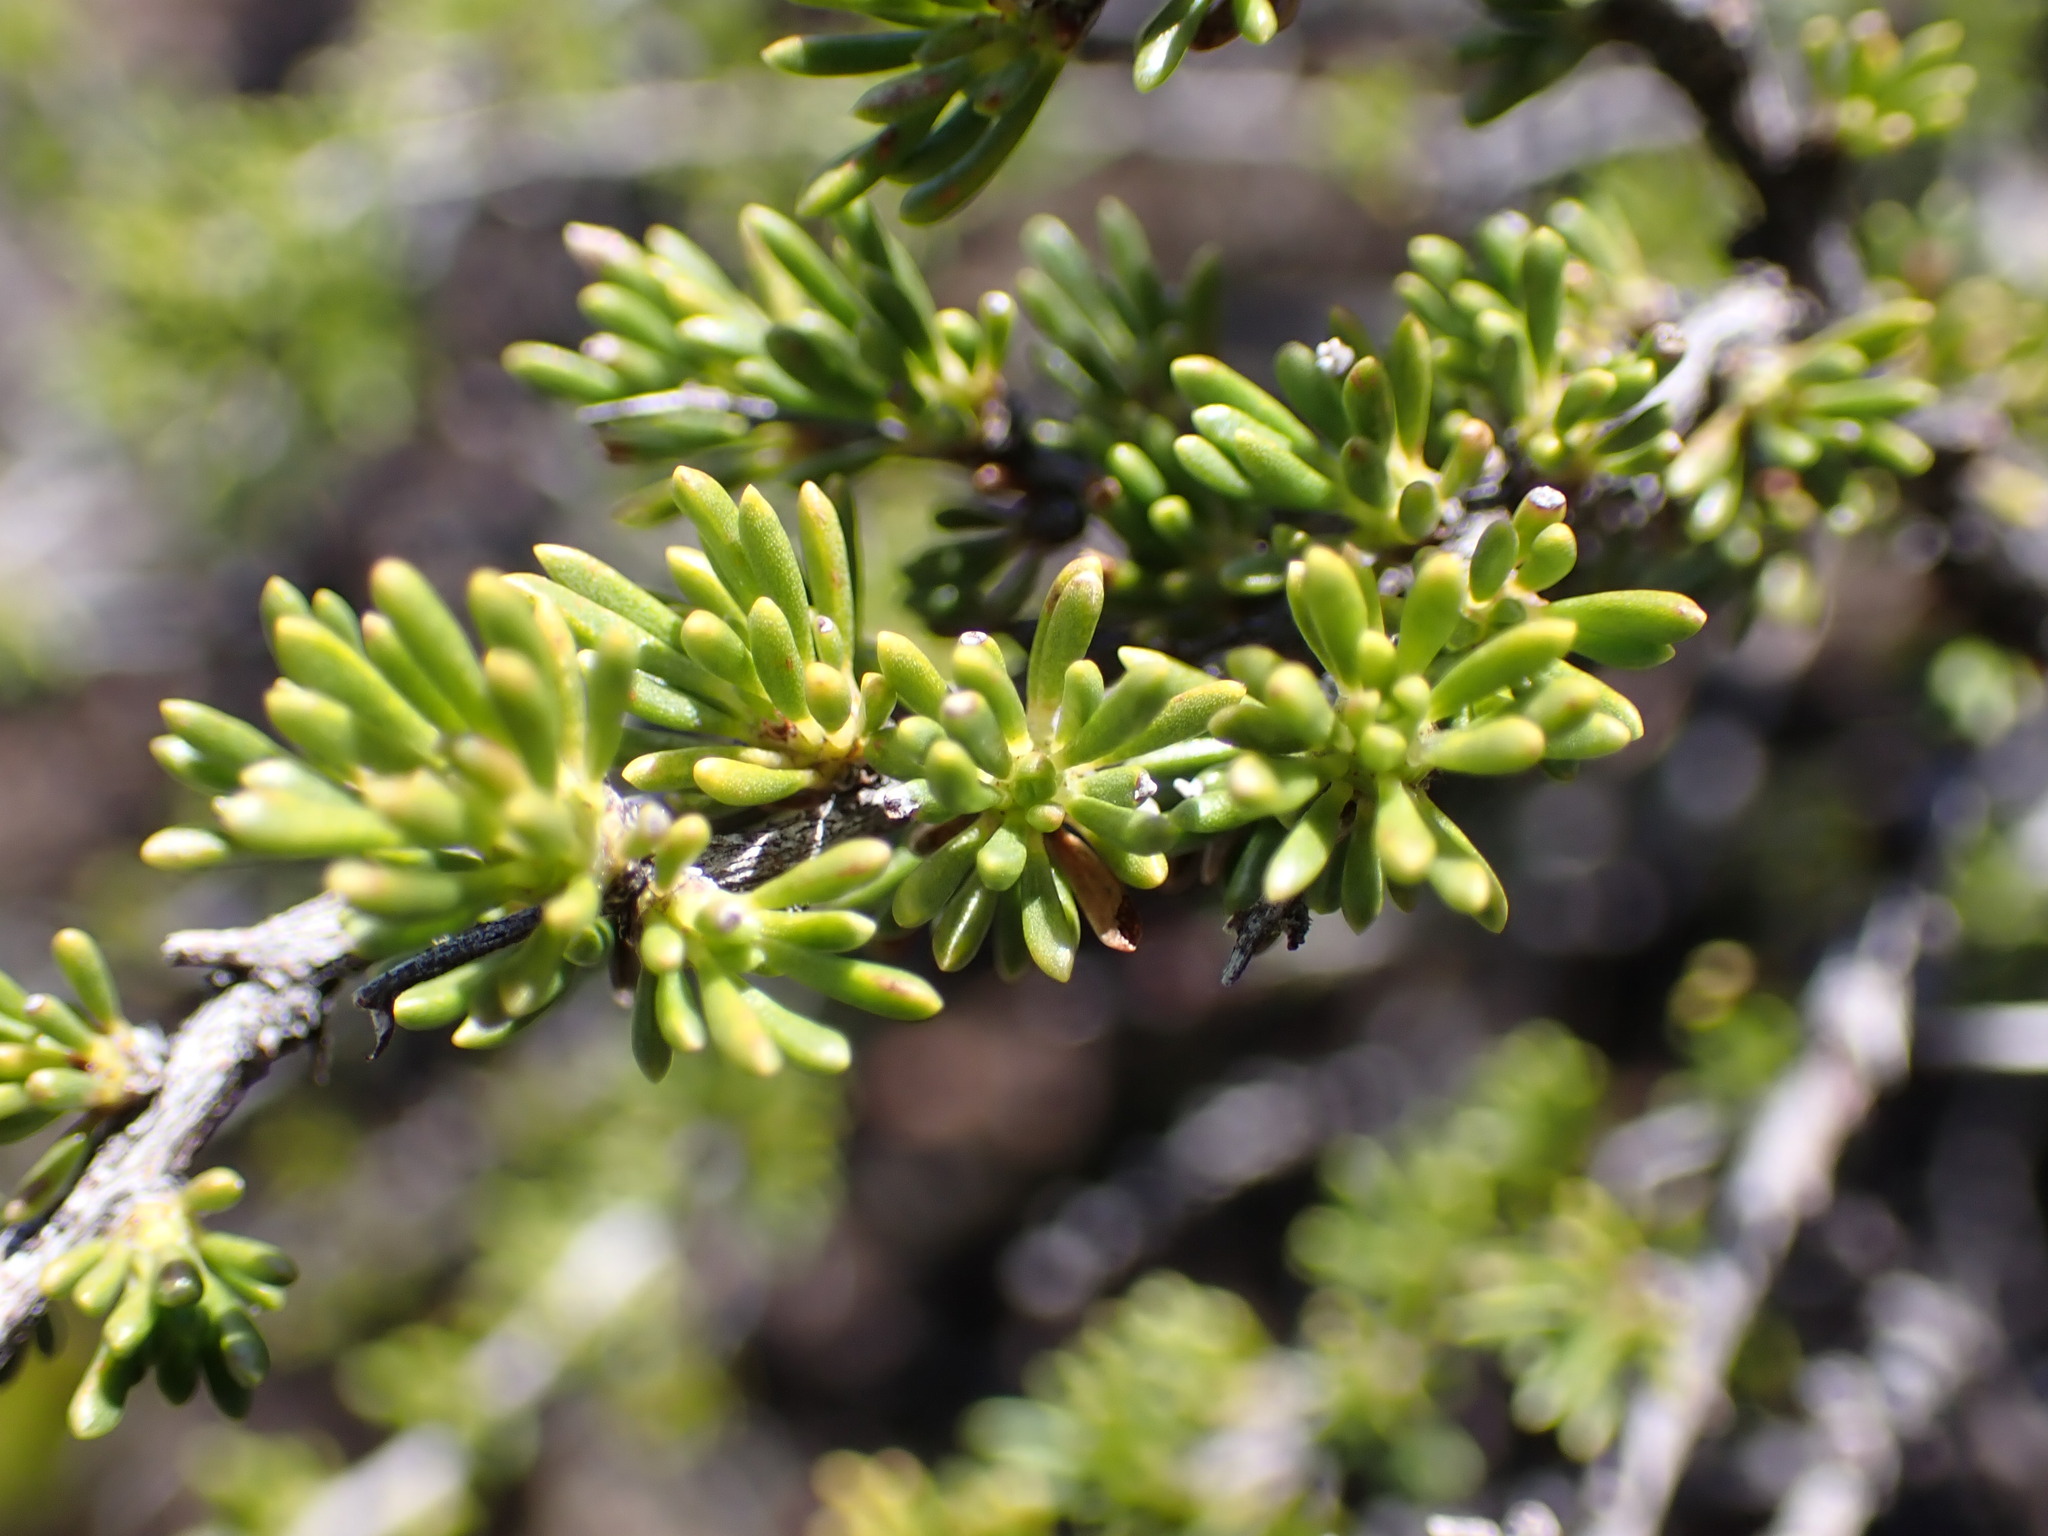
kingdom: Plantae
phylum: Tracheophyta
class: Magnoliopsida
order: Rosales
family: Rosaceae
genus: Adenostoma
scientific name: Adenostoma fasciculatum
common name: Chamise
